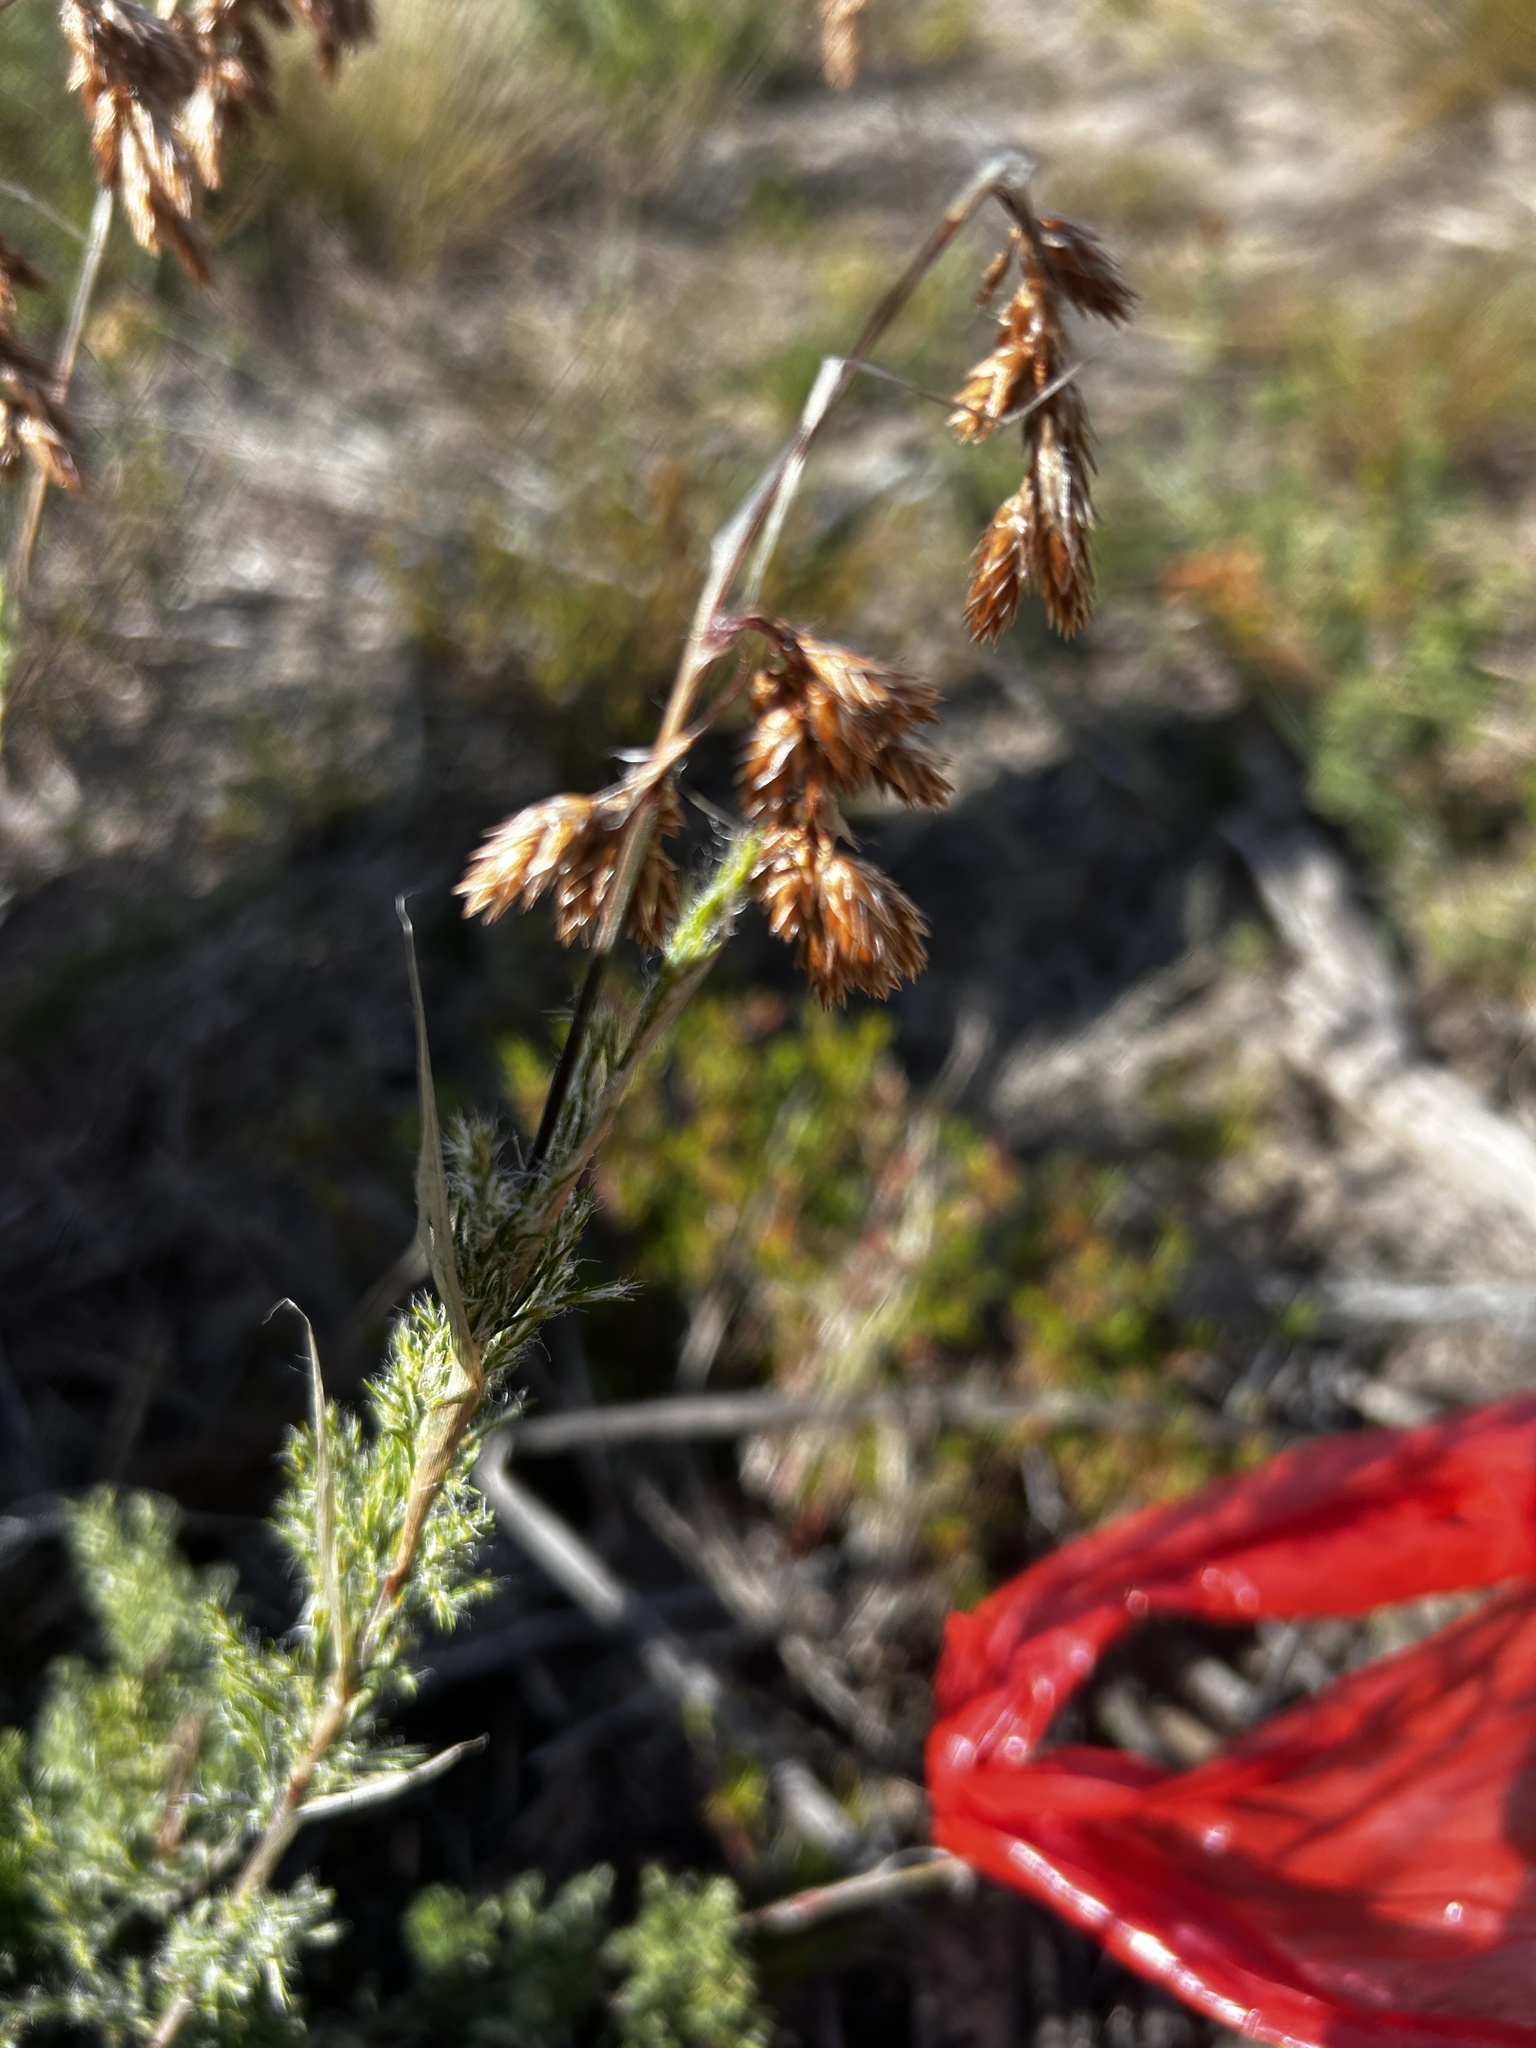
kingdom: Plantae
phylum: Tracheophyta
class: Liliopsida
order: Poales
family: Restionaceae
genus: Thamnochortus
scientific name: Thamnochortus fruticosus
